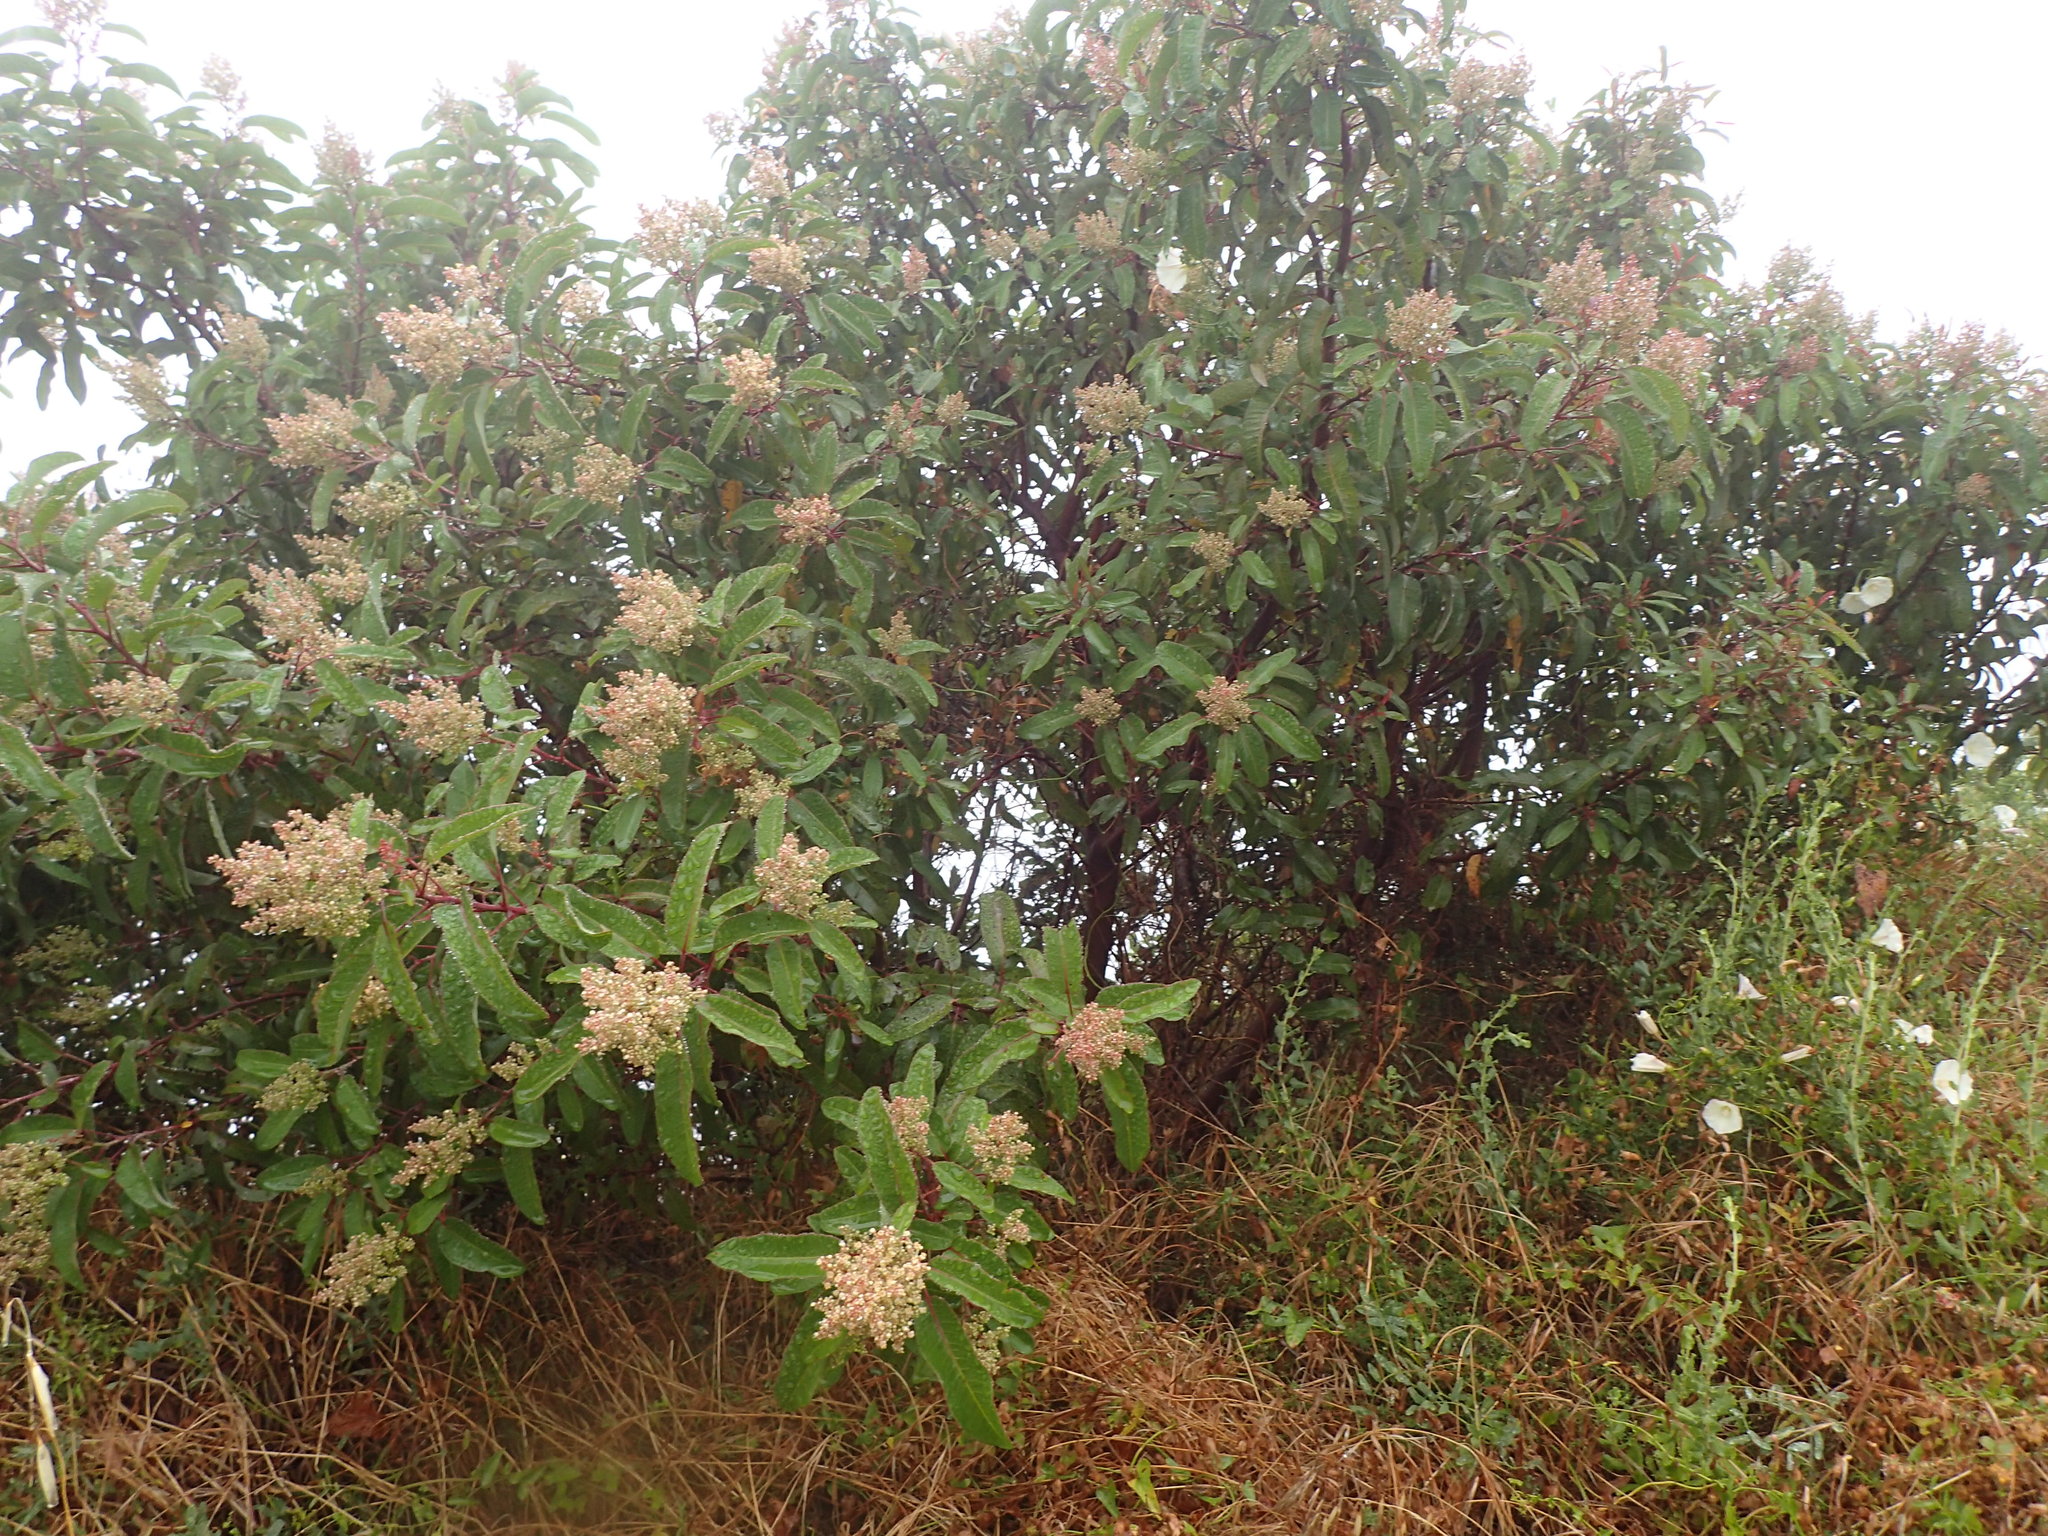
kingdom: Plantae
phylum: Tracheophyta
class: Magnoliopsida
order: Sapindales
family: Anacardiaceae
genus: Malosma
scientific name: Malosma laurina
